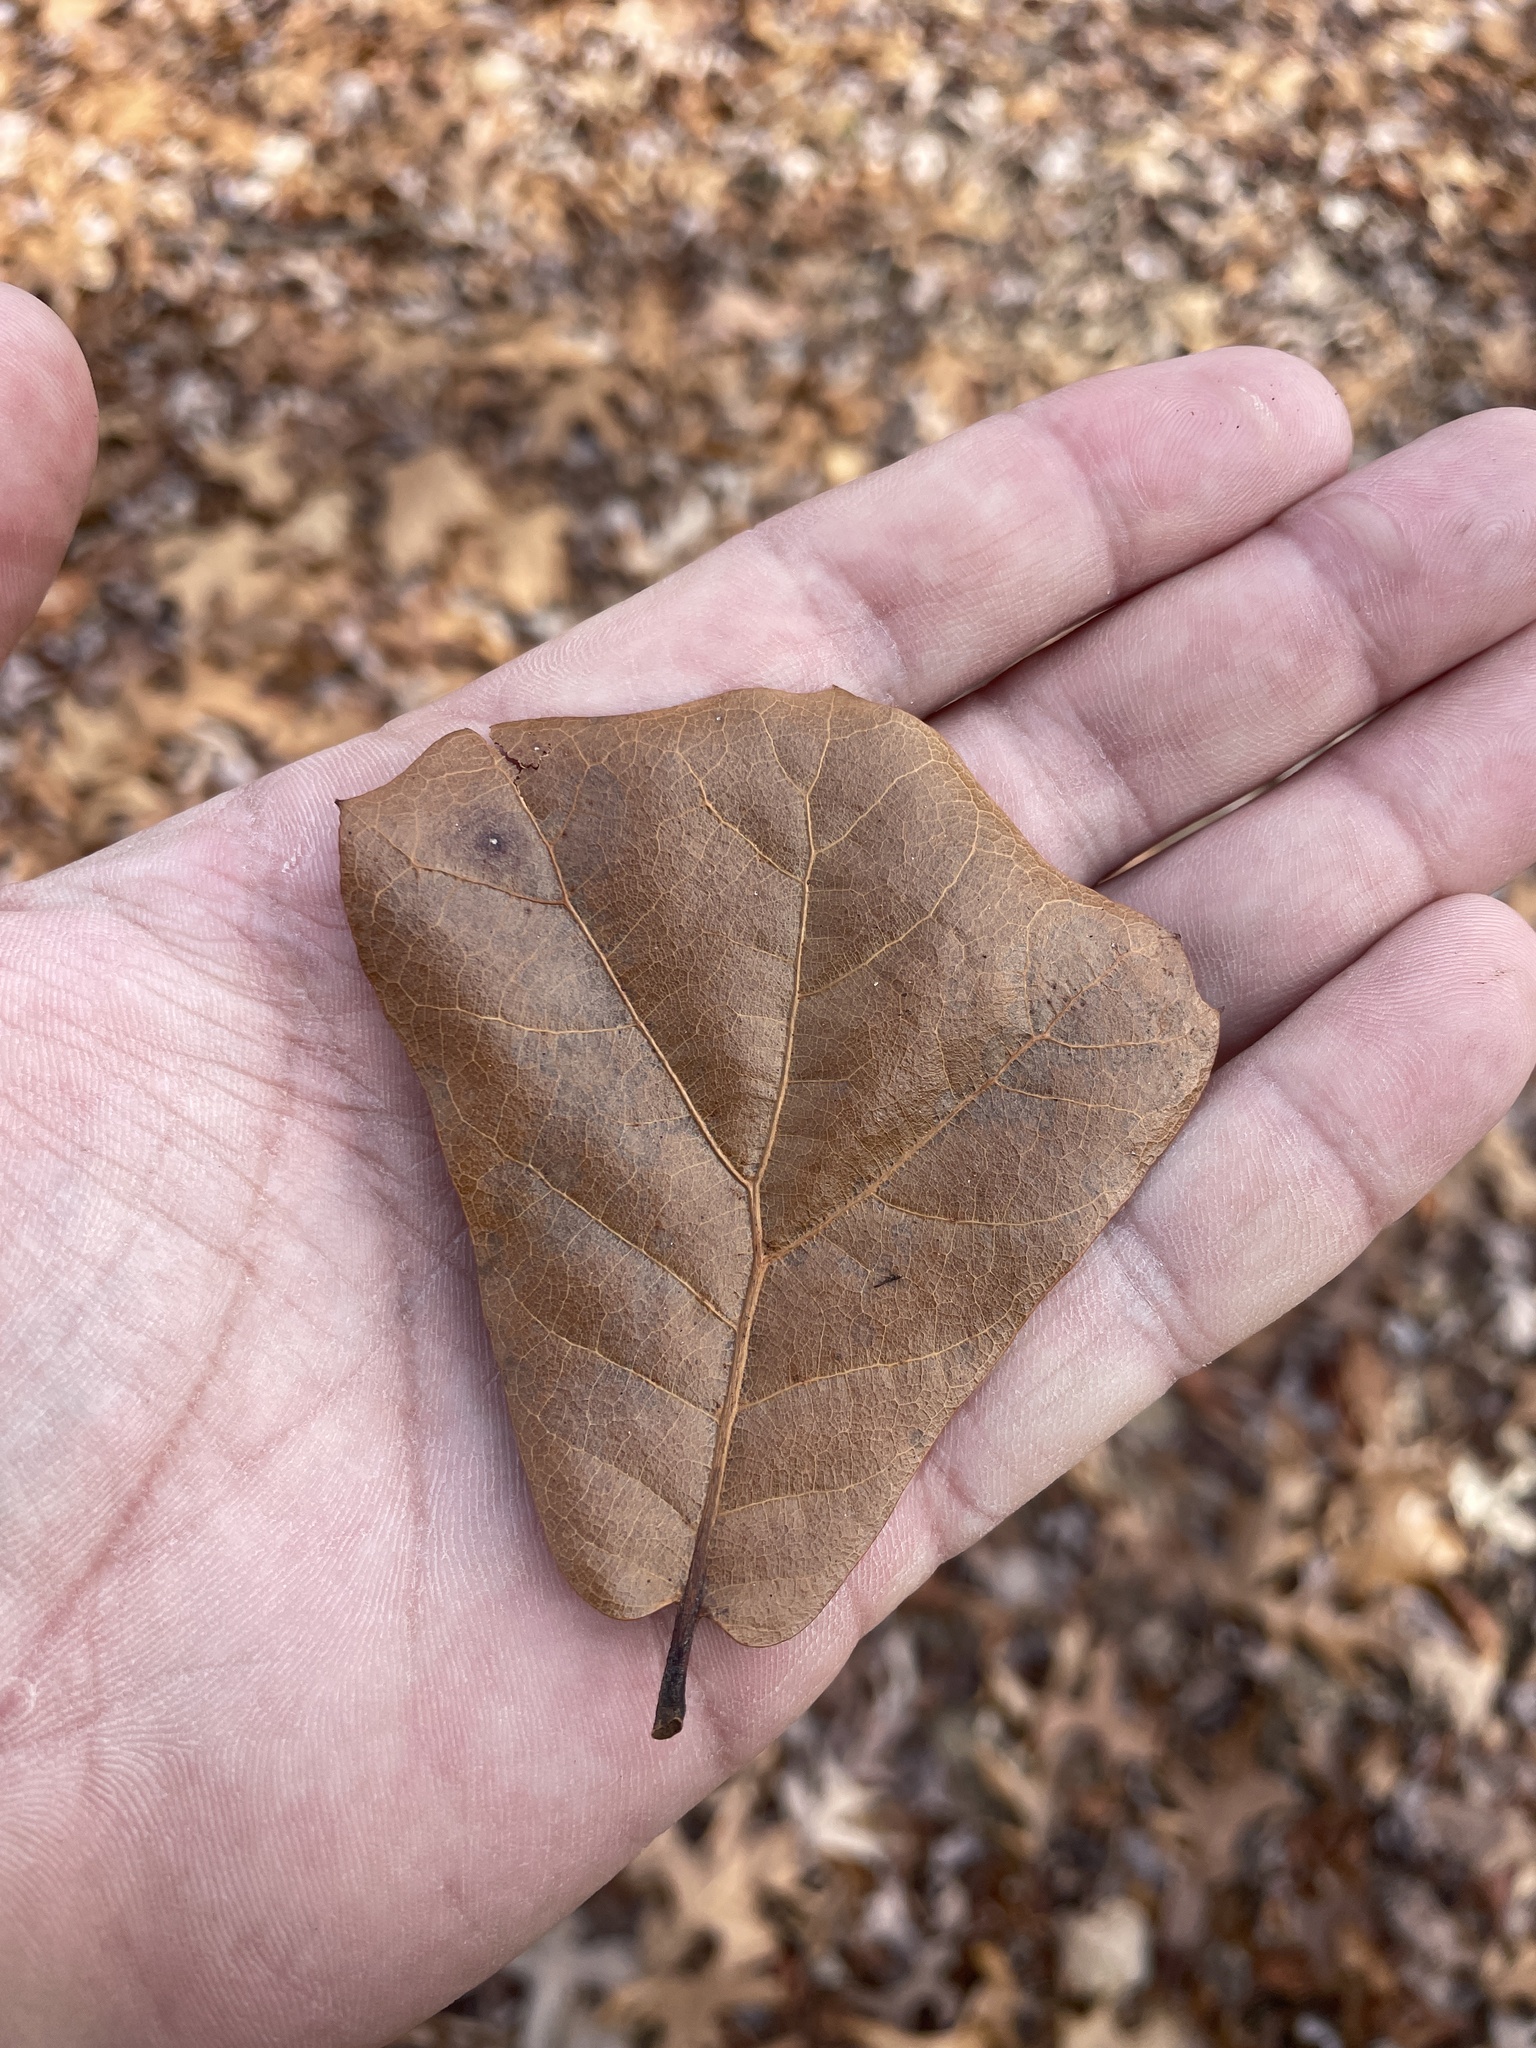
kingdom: Plantae
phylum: Tracheophyta
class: Magnoliopsida
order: Fagales
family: Fagaceae
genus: Quercus
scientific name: Quercus marilandica
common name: Blackjack oak
